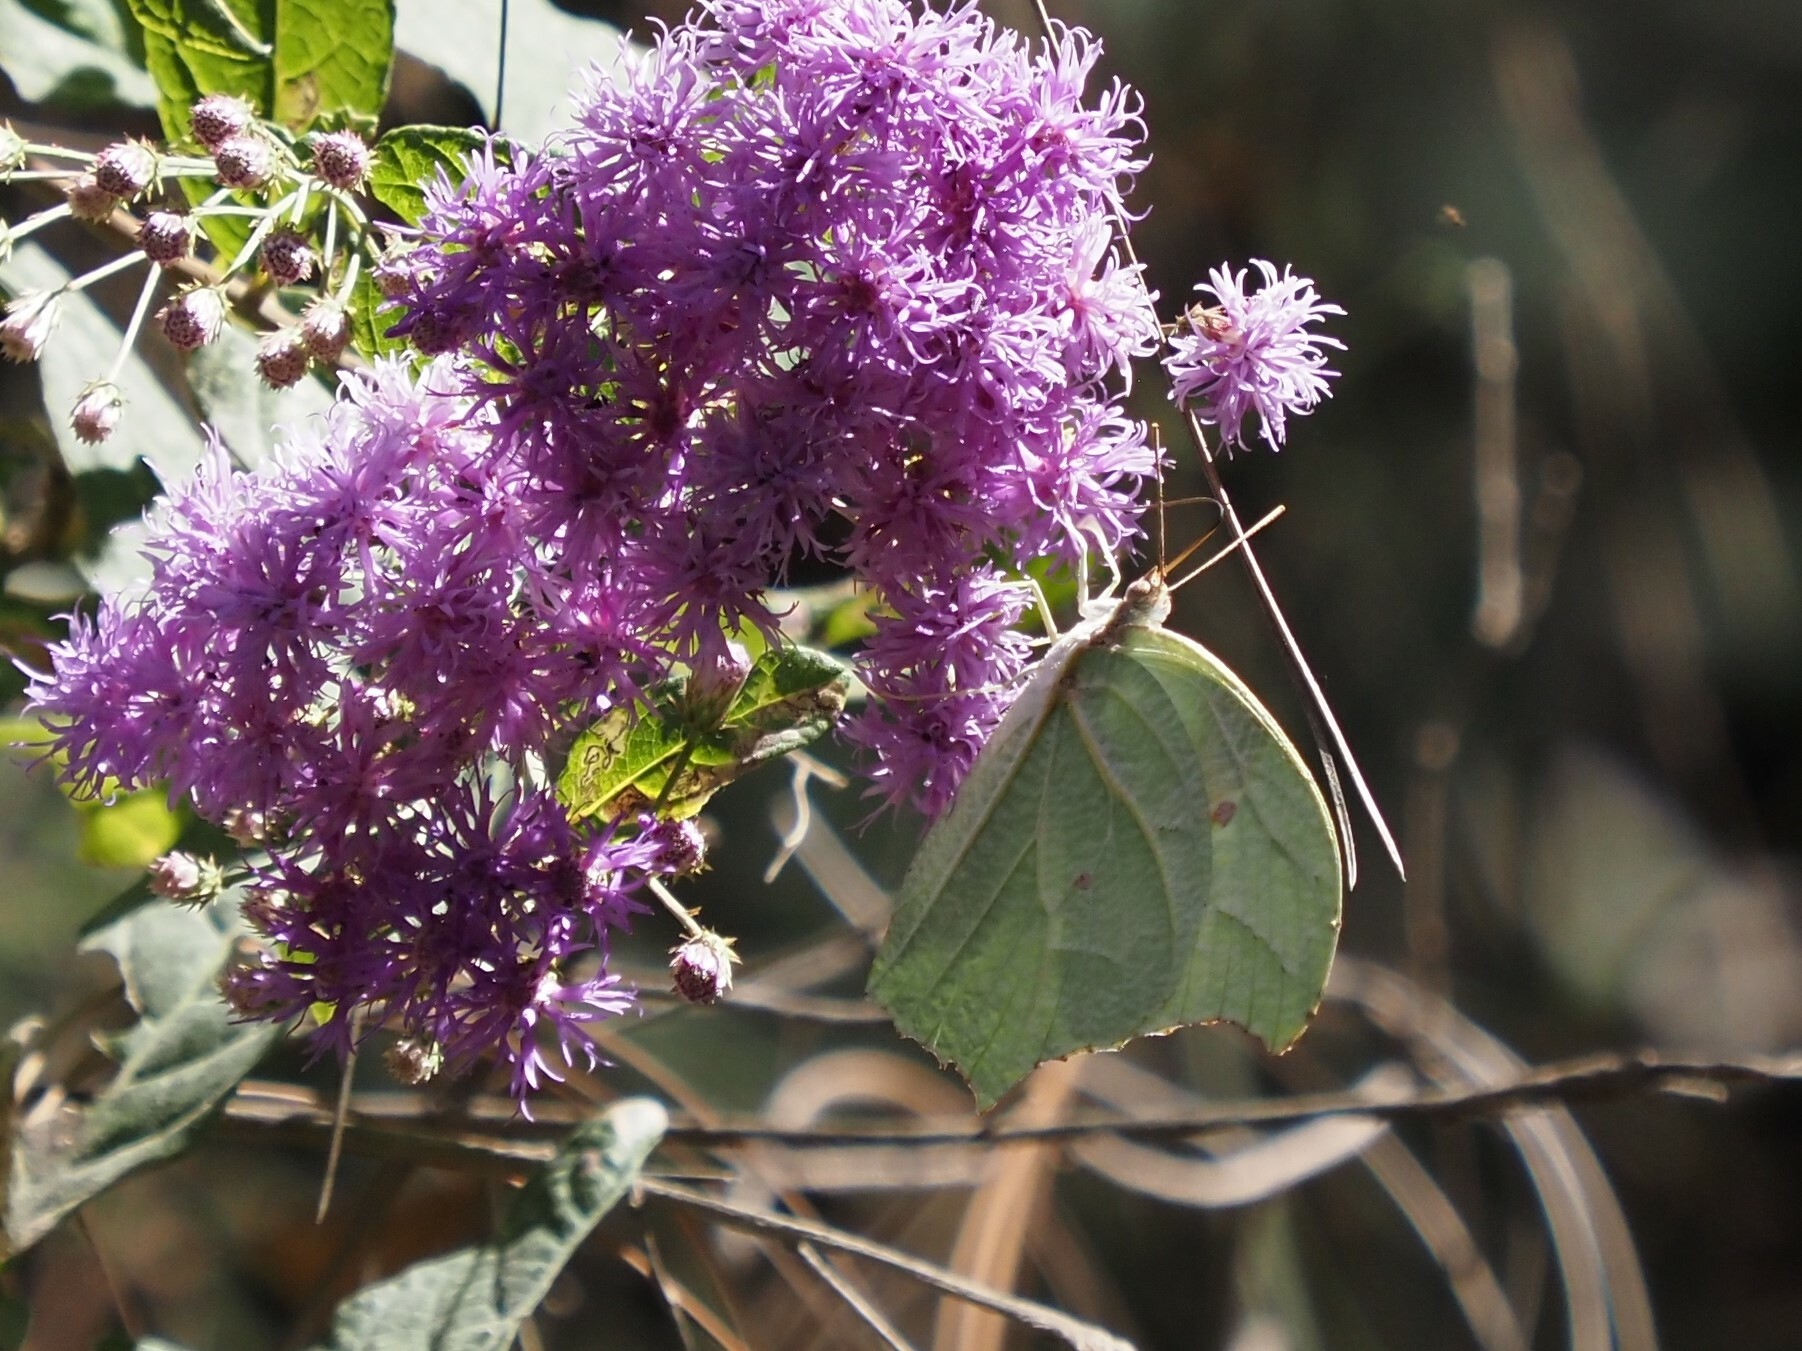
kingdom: Animalia
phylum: Arthropoda
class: Insecta
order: Lepidoptera
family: Pieridae
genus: Anteos
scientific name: Anteos clorinde
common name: White angled sulphur
